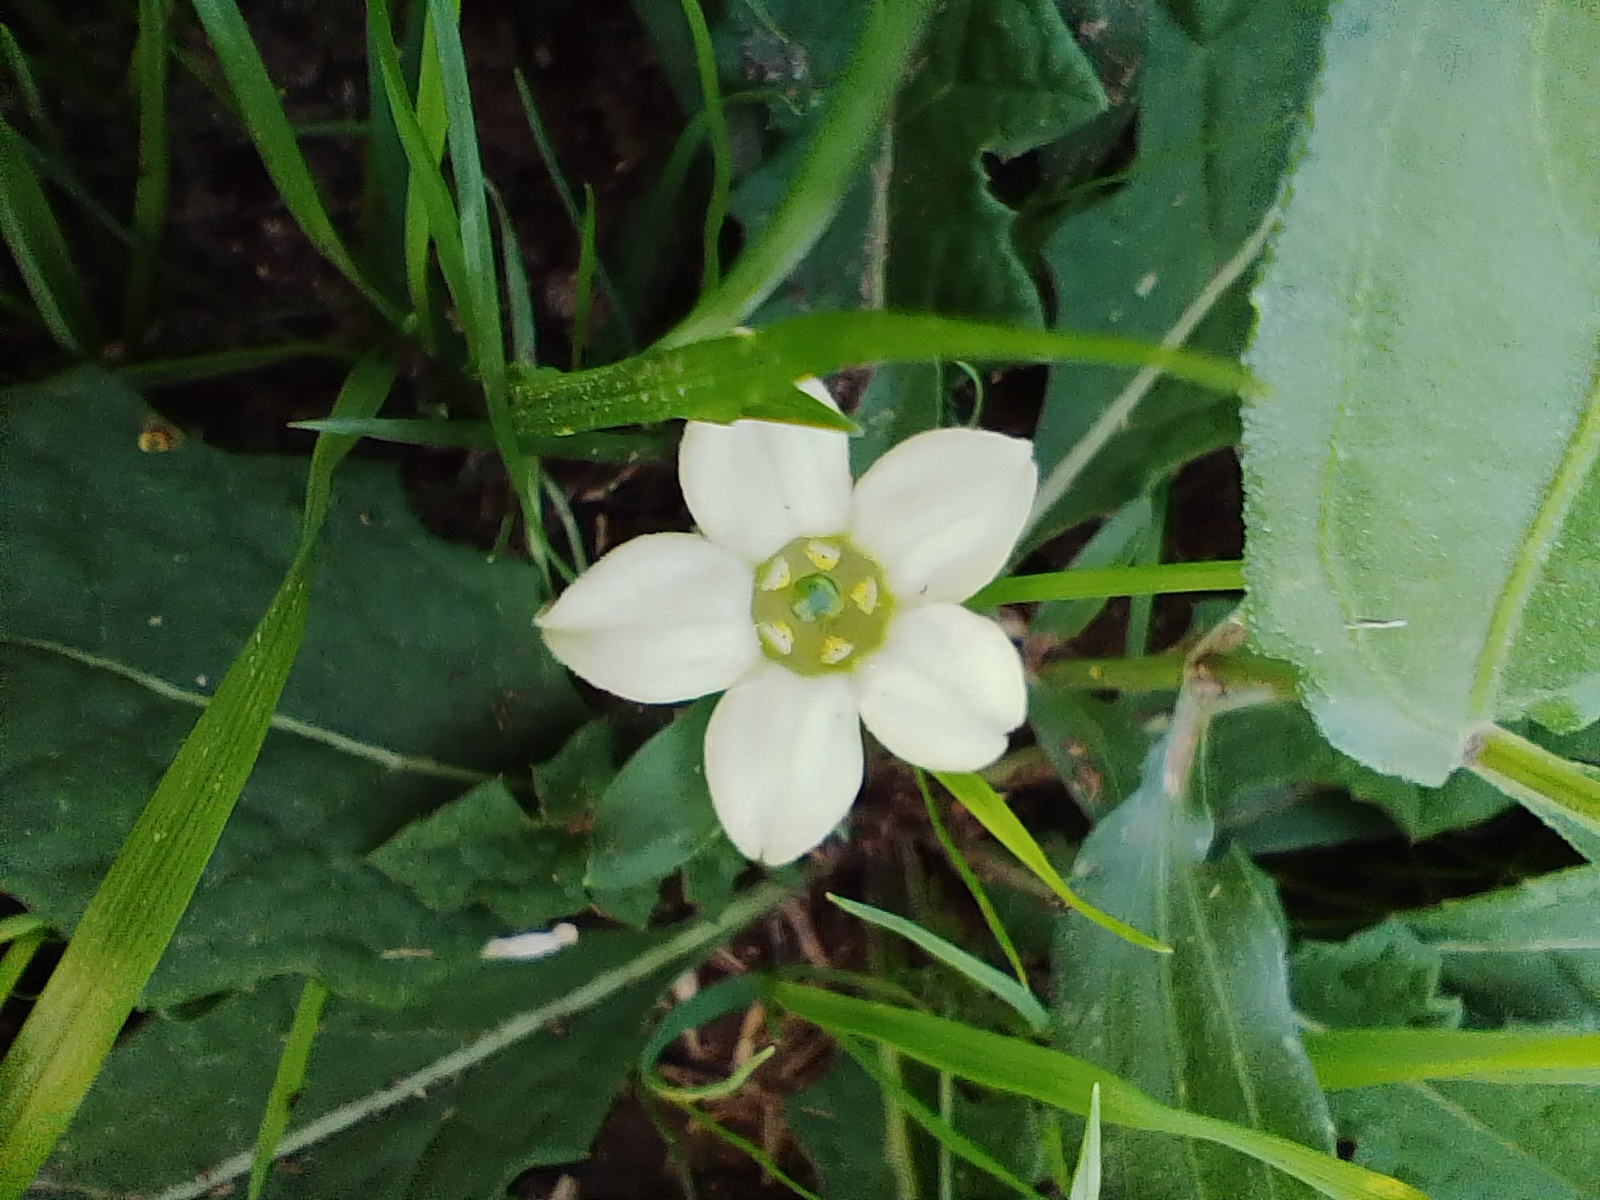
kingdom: Plantae
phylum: Tracheophyta
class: Magnoliopsida
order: Solanales
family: Solanaceae
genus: Jaborosa
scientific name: Jaborosa runcinata
